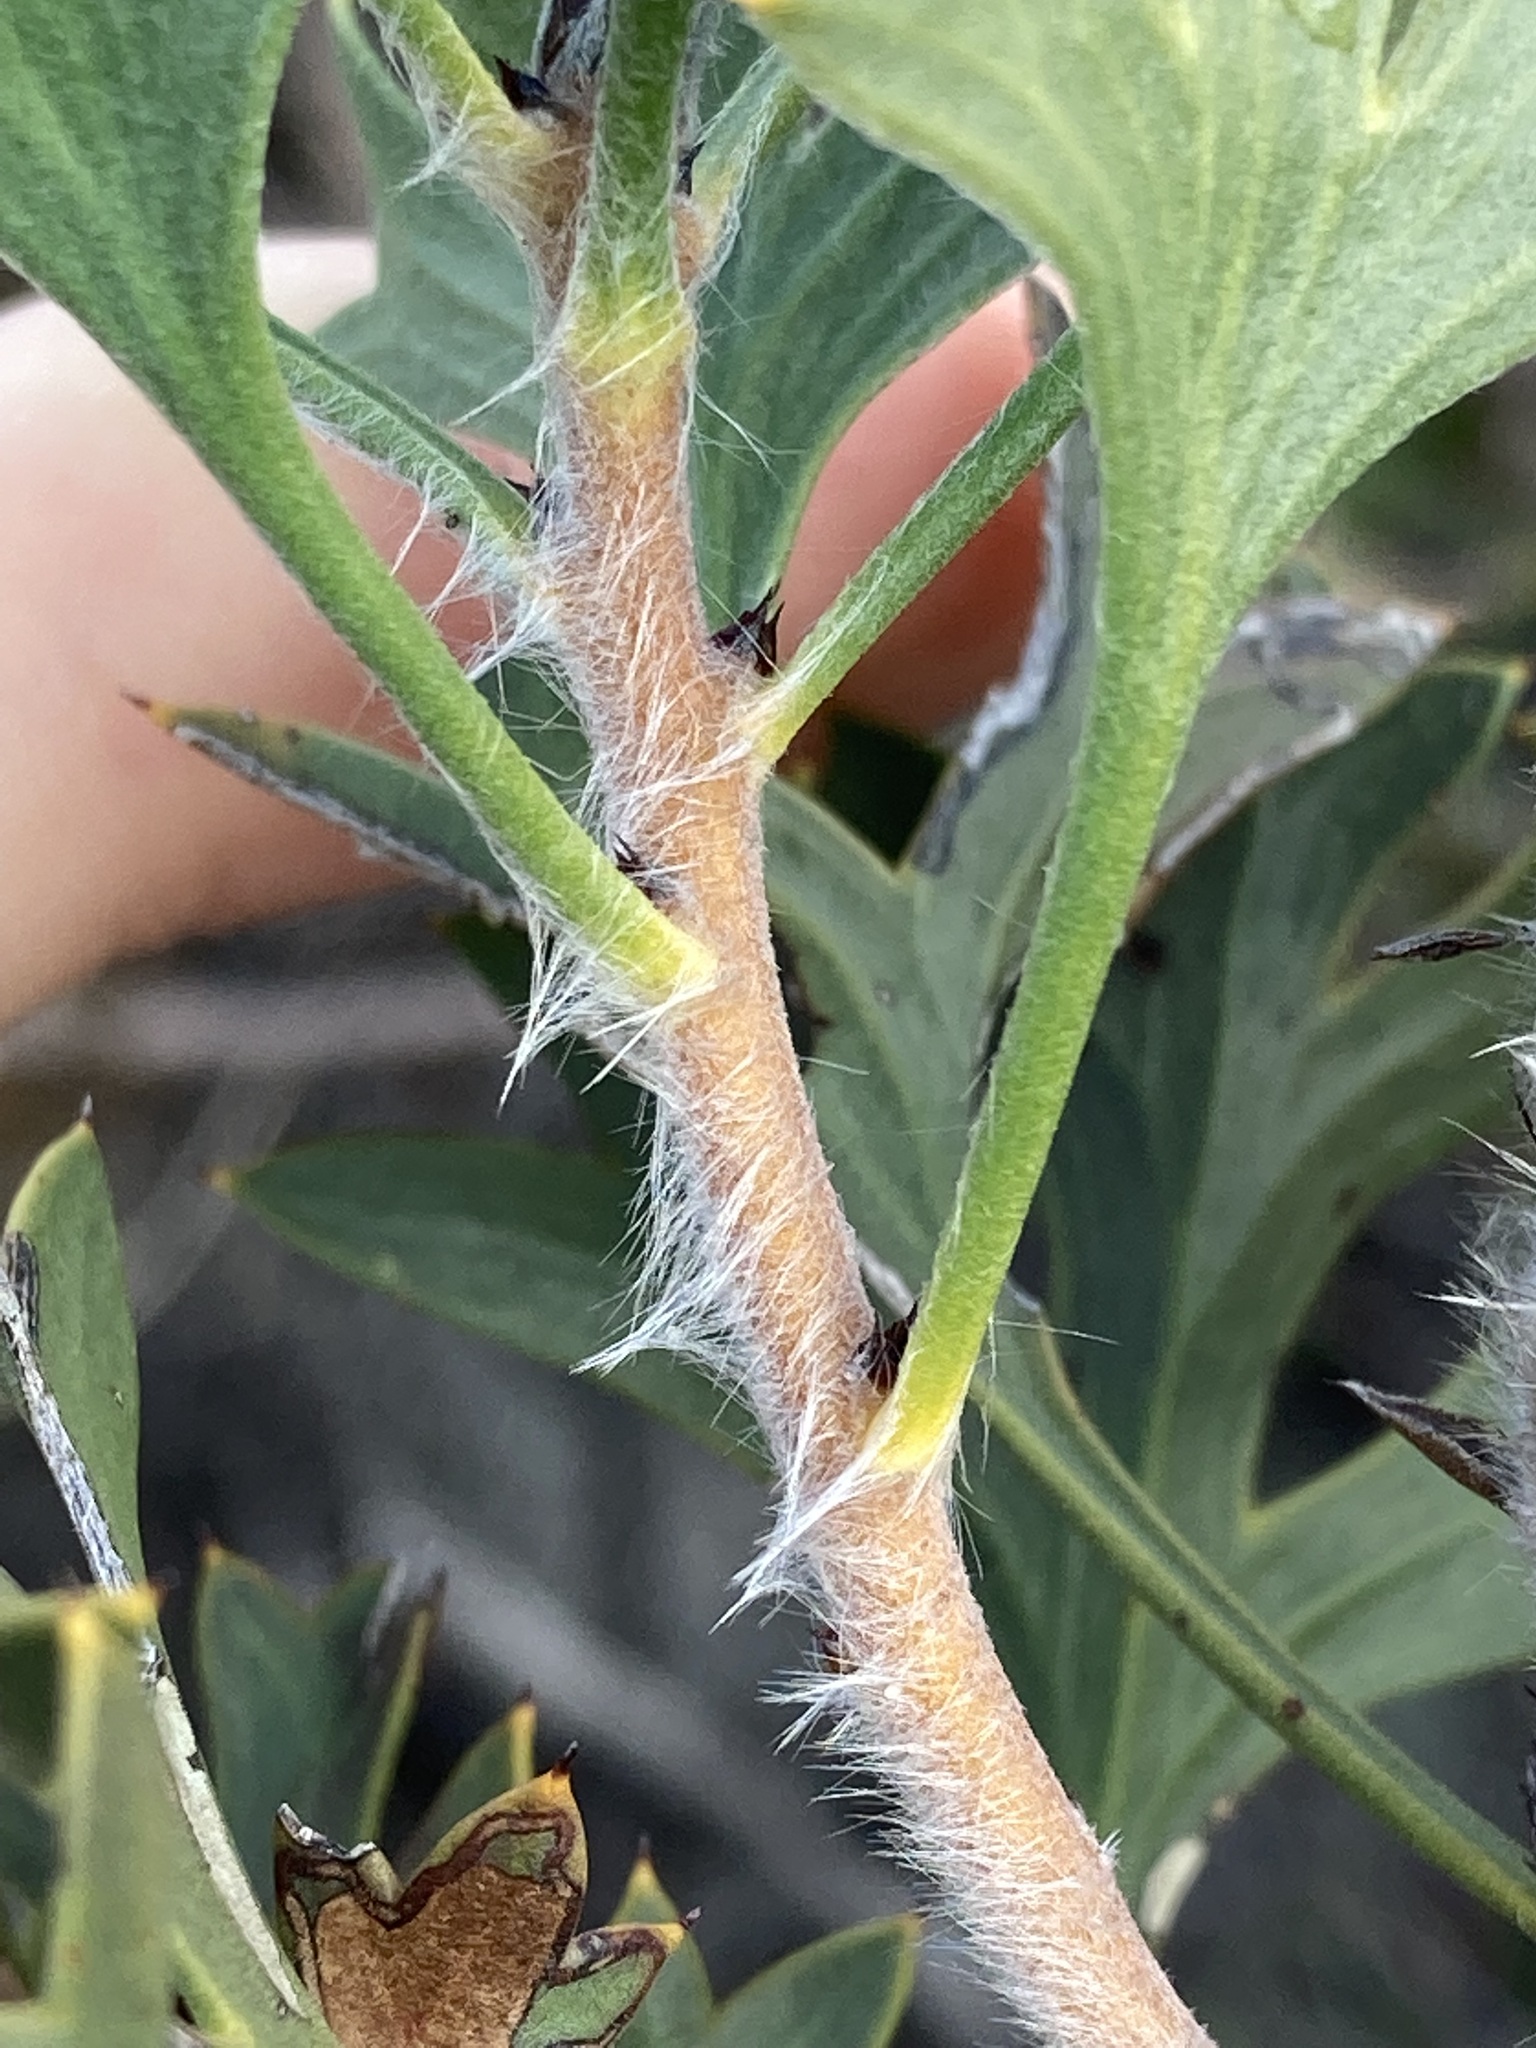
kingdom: Plantae
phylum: Tracheophyta
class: Magnoliopsida
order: Proteales
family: Proteaceae
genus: Petrophile
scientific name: Petrophile macrostachya
